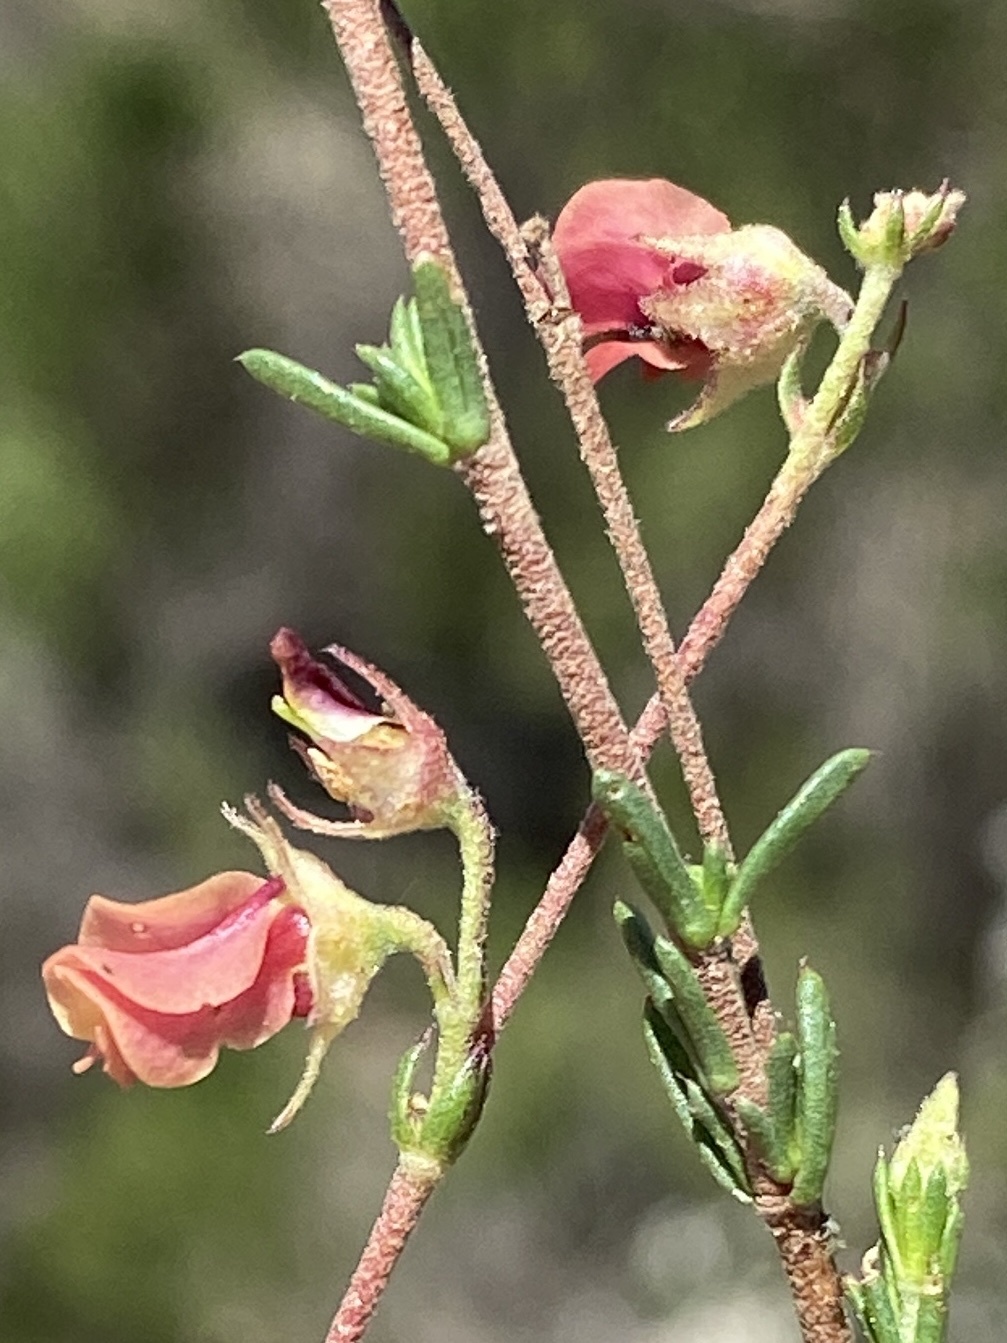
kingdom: Plantae
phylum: Tracheophyta
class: Magnoliopsida
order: Malvales
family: Malvaceae
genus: Hermannia
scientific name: Hermannia filifolia
